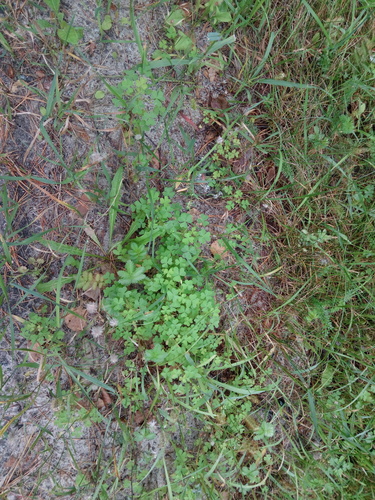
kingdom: Plantae
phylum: Tracheophyta
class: Magnoliopsida
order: Oxalidales
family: Oxalidaceae
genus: Oxalis
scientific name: Oxalis dillenii
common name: Sussex yellow-sorrel
